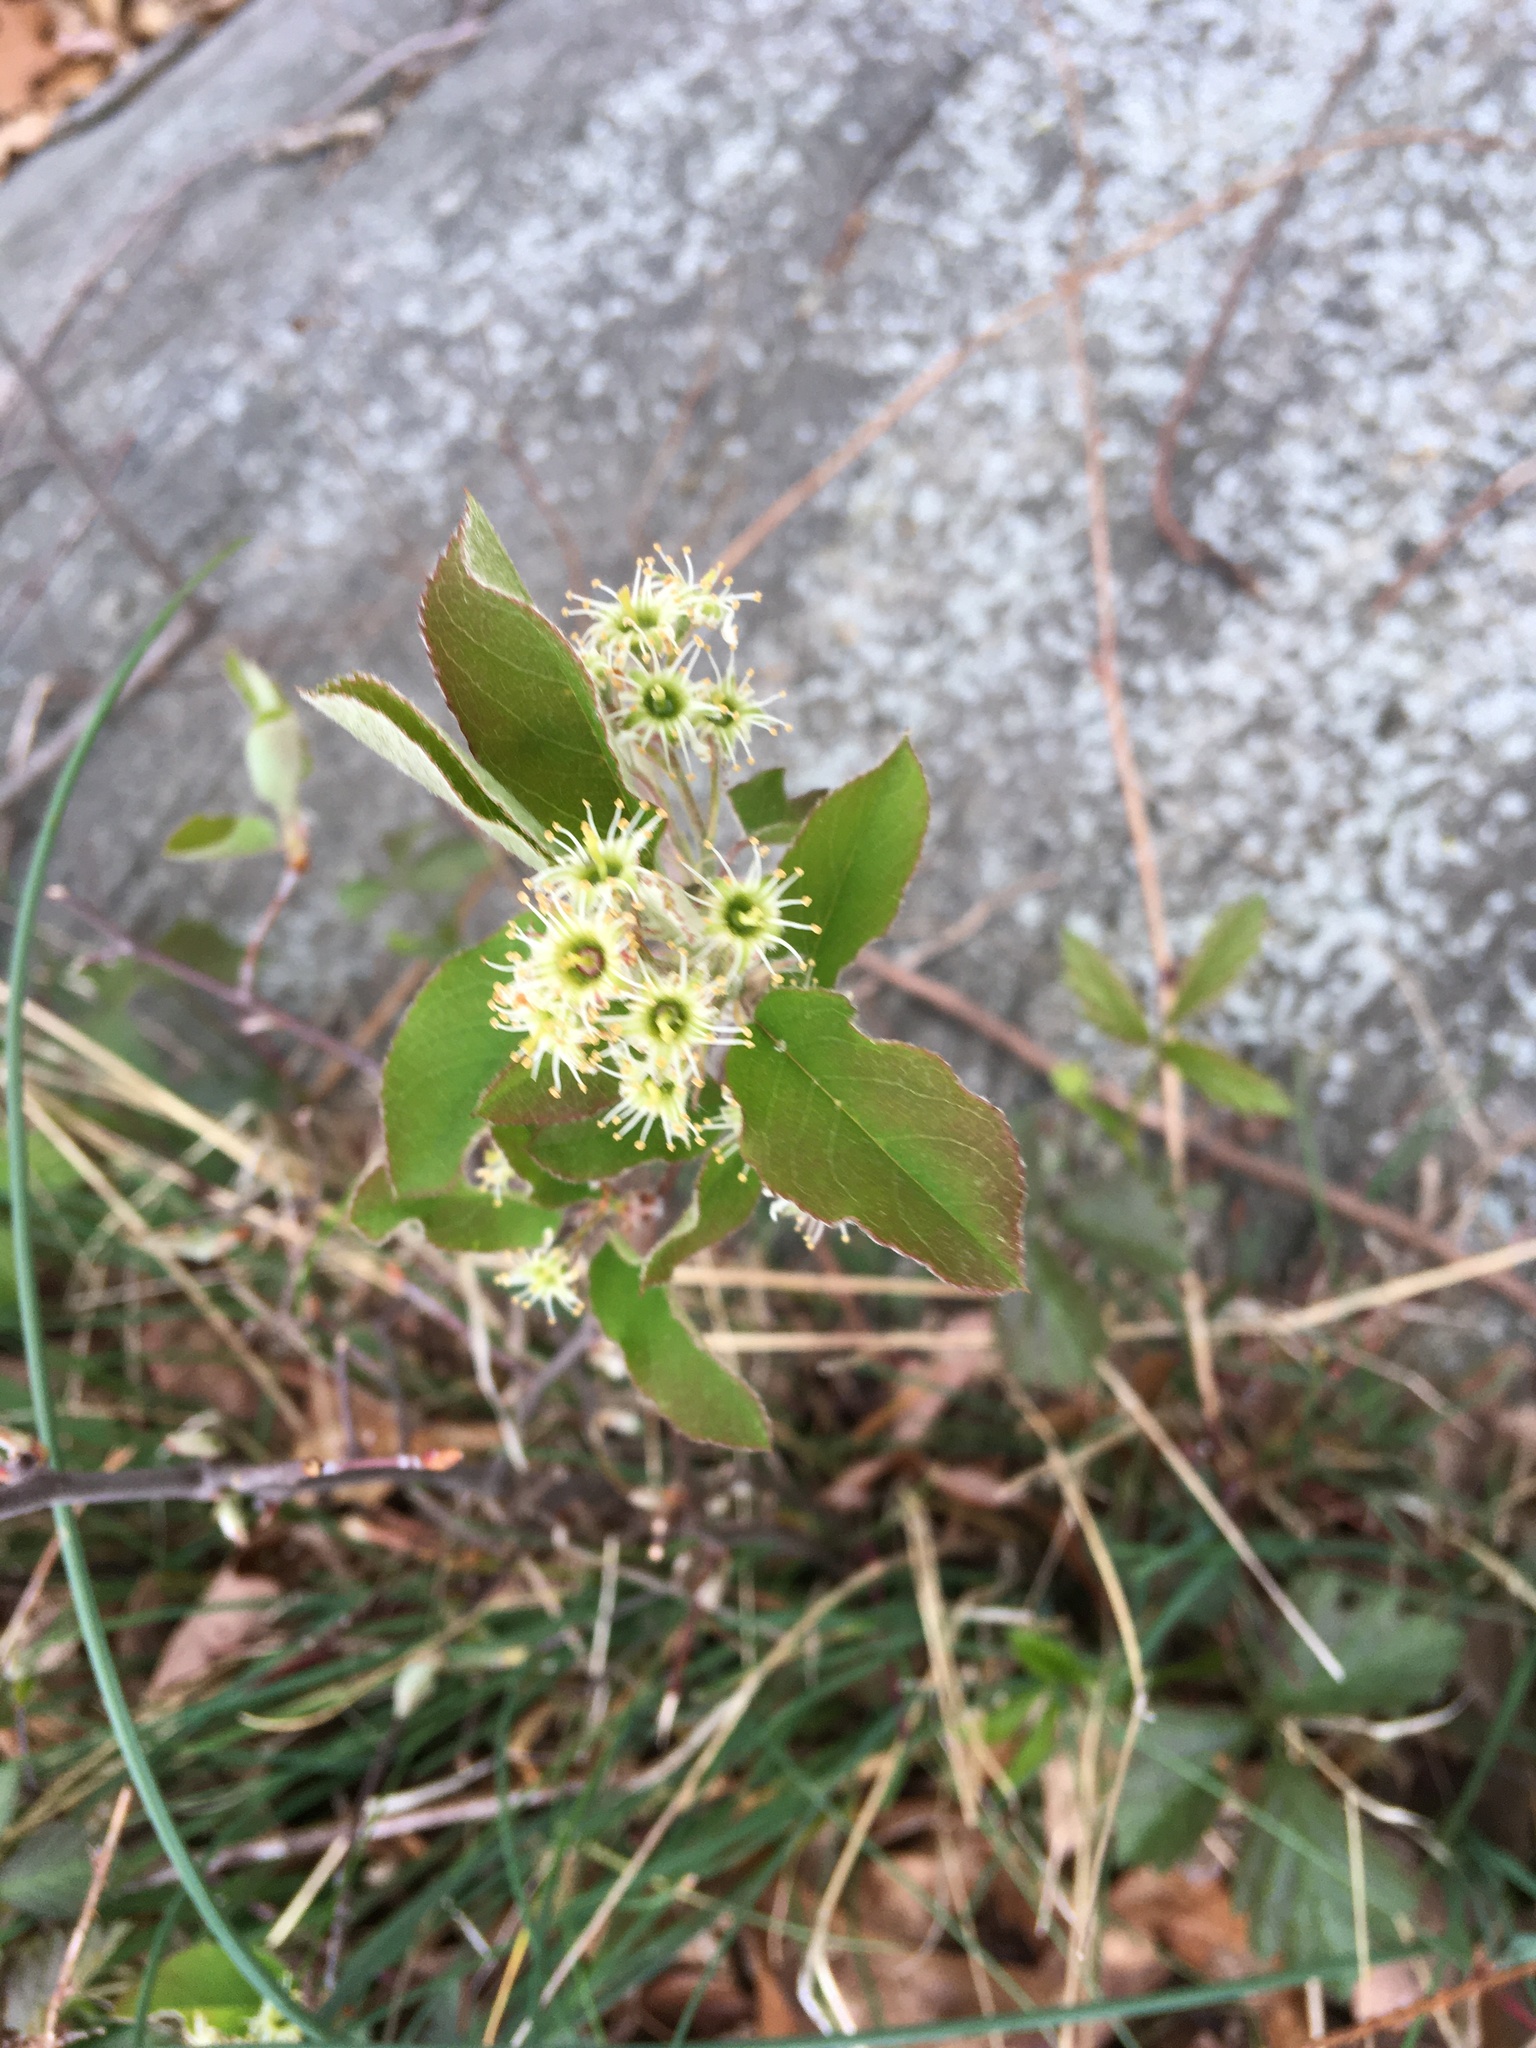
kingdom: Plantae
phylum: Tracheophyta
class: Magnoliopsida
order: Rosales
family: Rosaceae
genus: Amelanchier
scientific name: Amelanchier nantucketensis
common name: Nantucket shadbush
